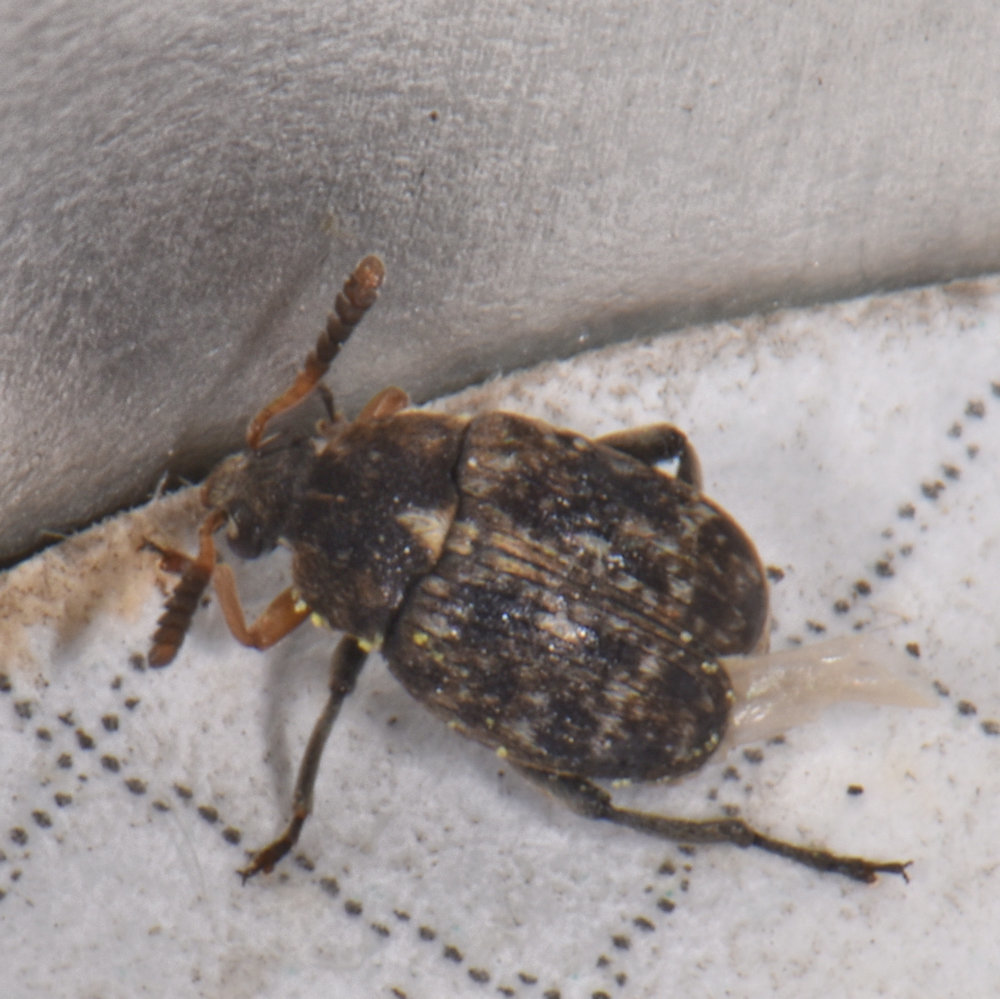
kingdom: Animalia
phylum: Arthropoda
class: Insecta
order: Coleoptera
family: Chrysomelidae
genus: Bruchus
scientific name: Bruchus brachialis
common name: Vetch bruchid
